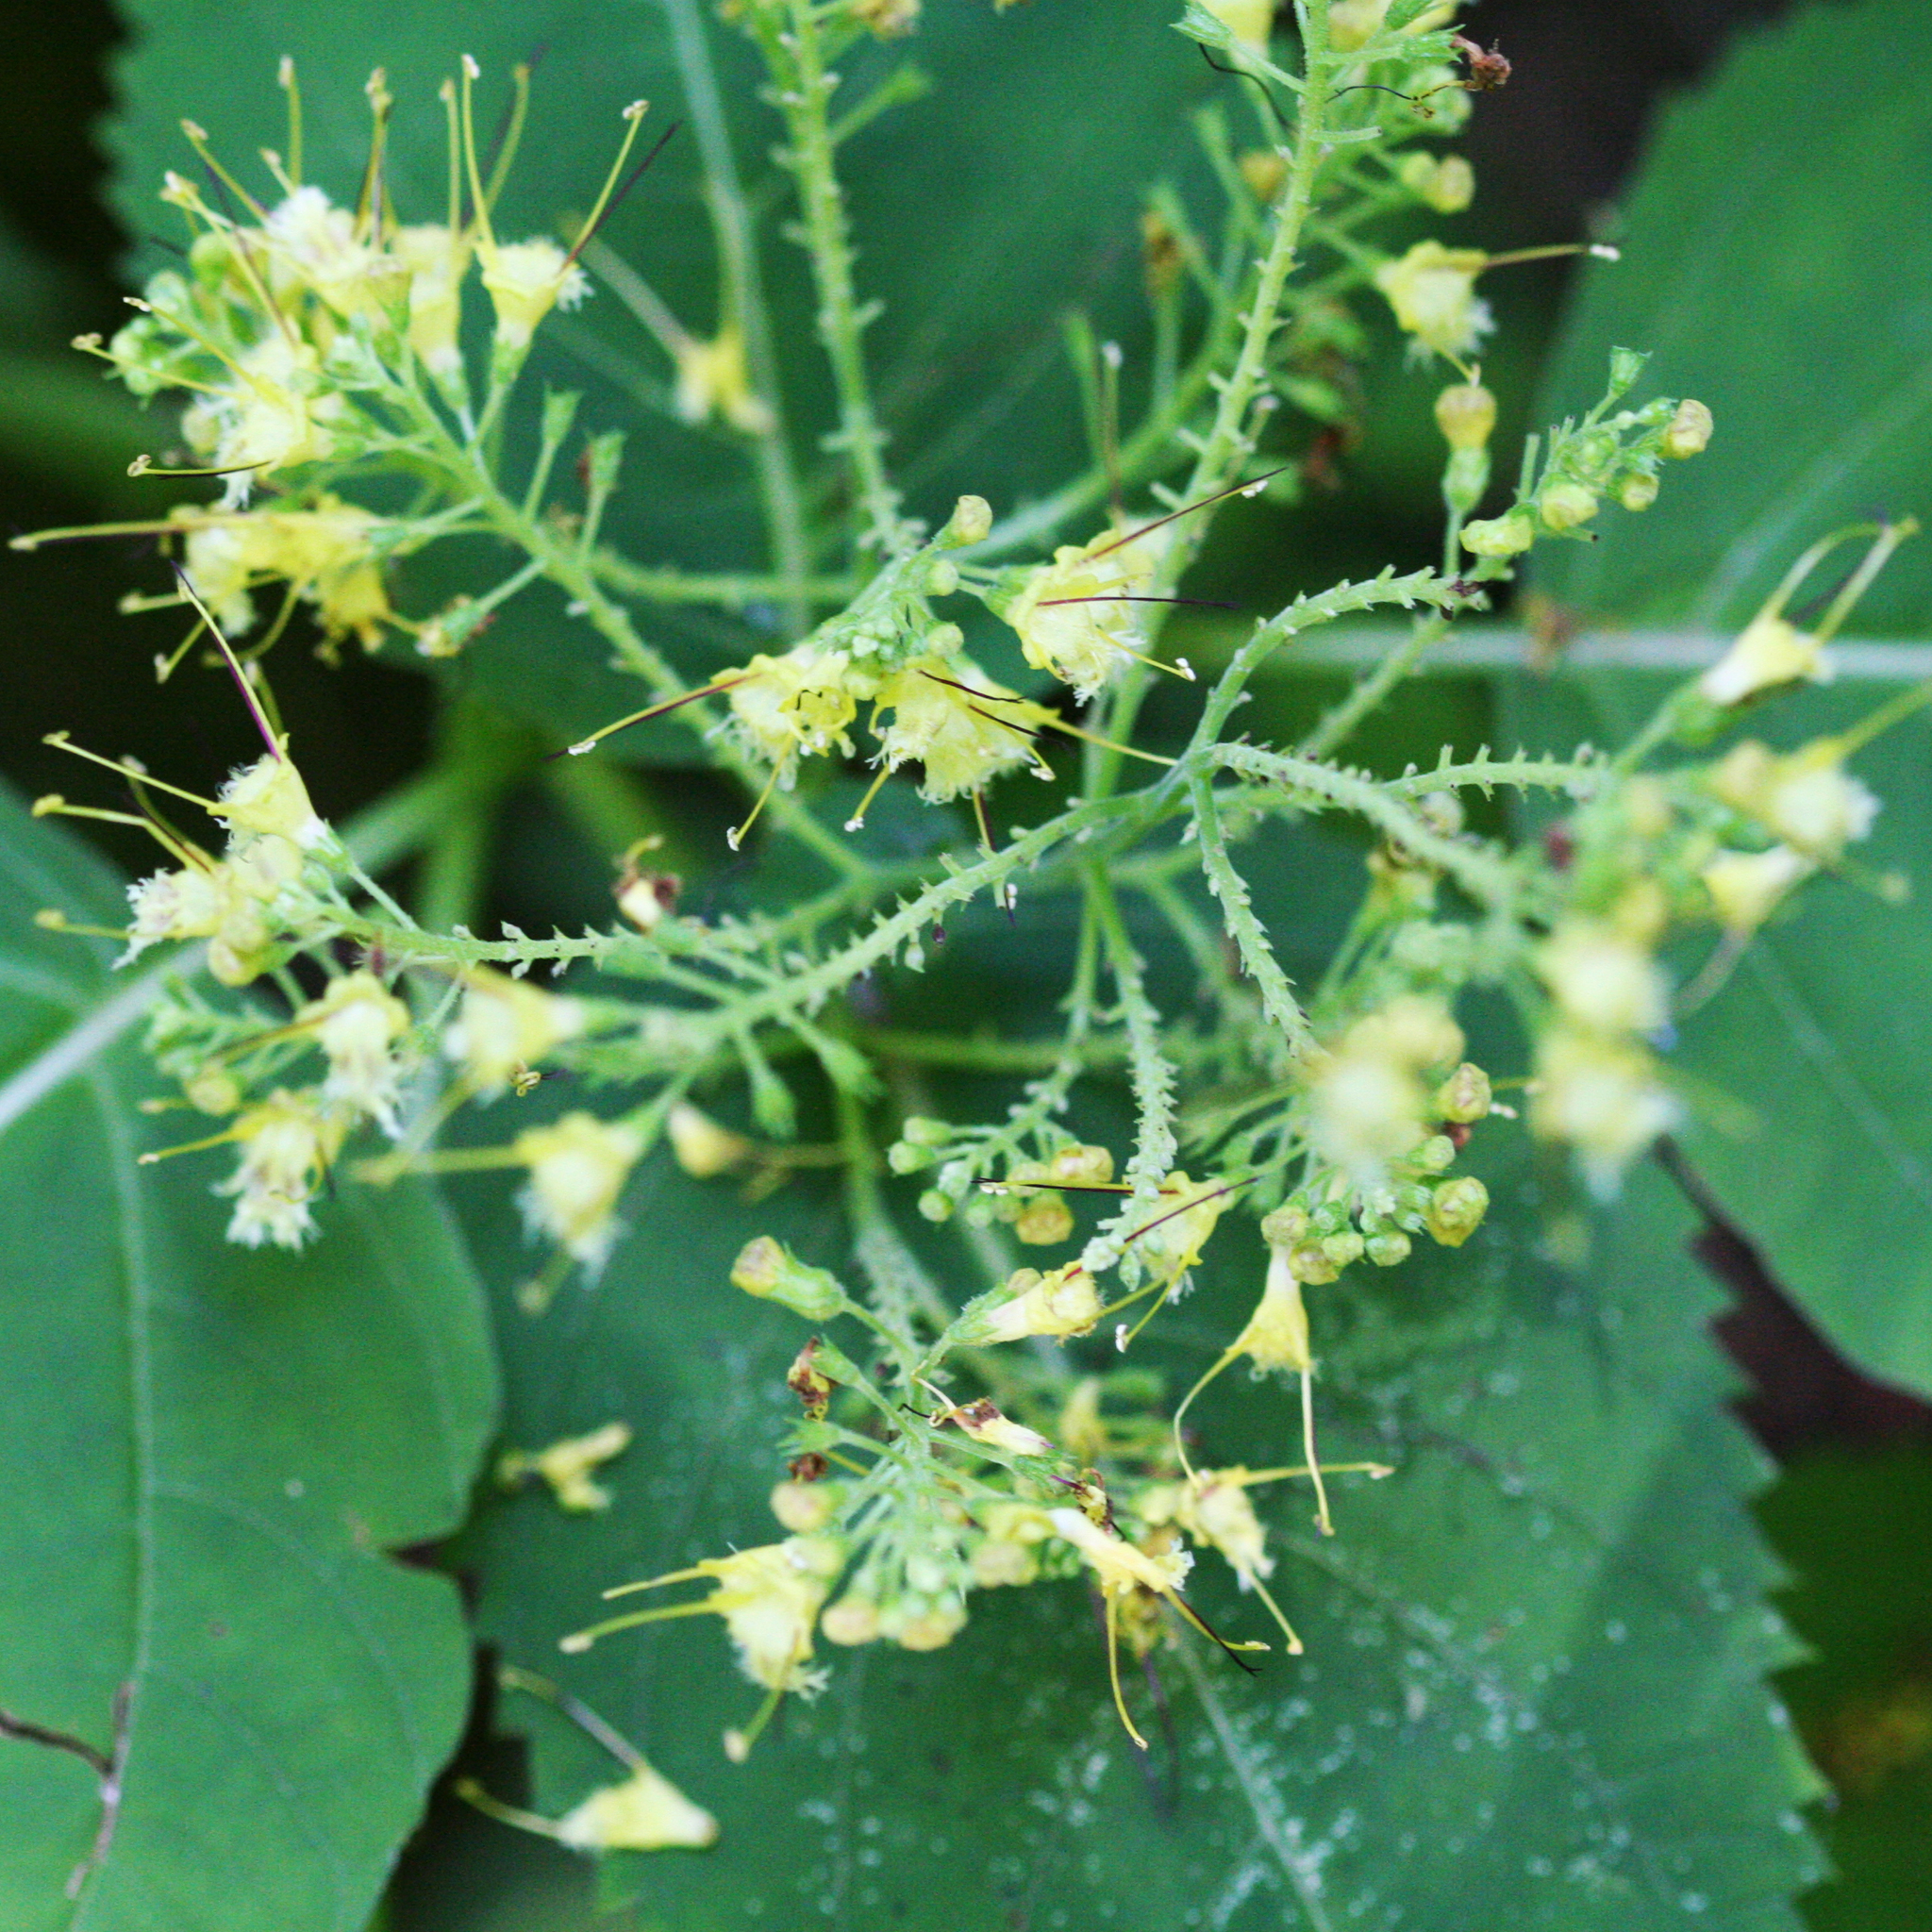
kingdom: Plantae
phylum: Tracheophyta
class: Magnoliopsida
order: Lamiales
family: Lamiaceae
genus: Collinsonia
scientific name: Collinsonia canadensis
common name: Northern horsebalm
